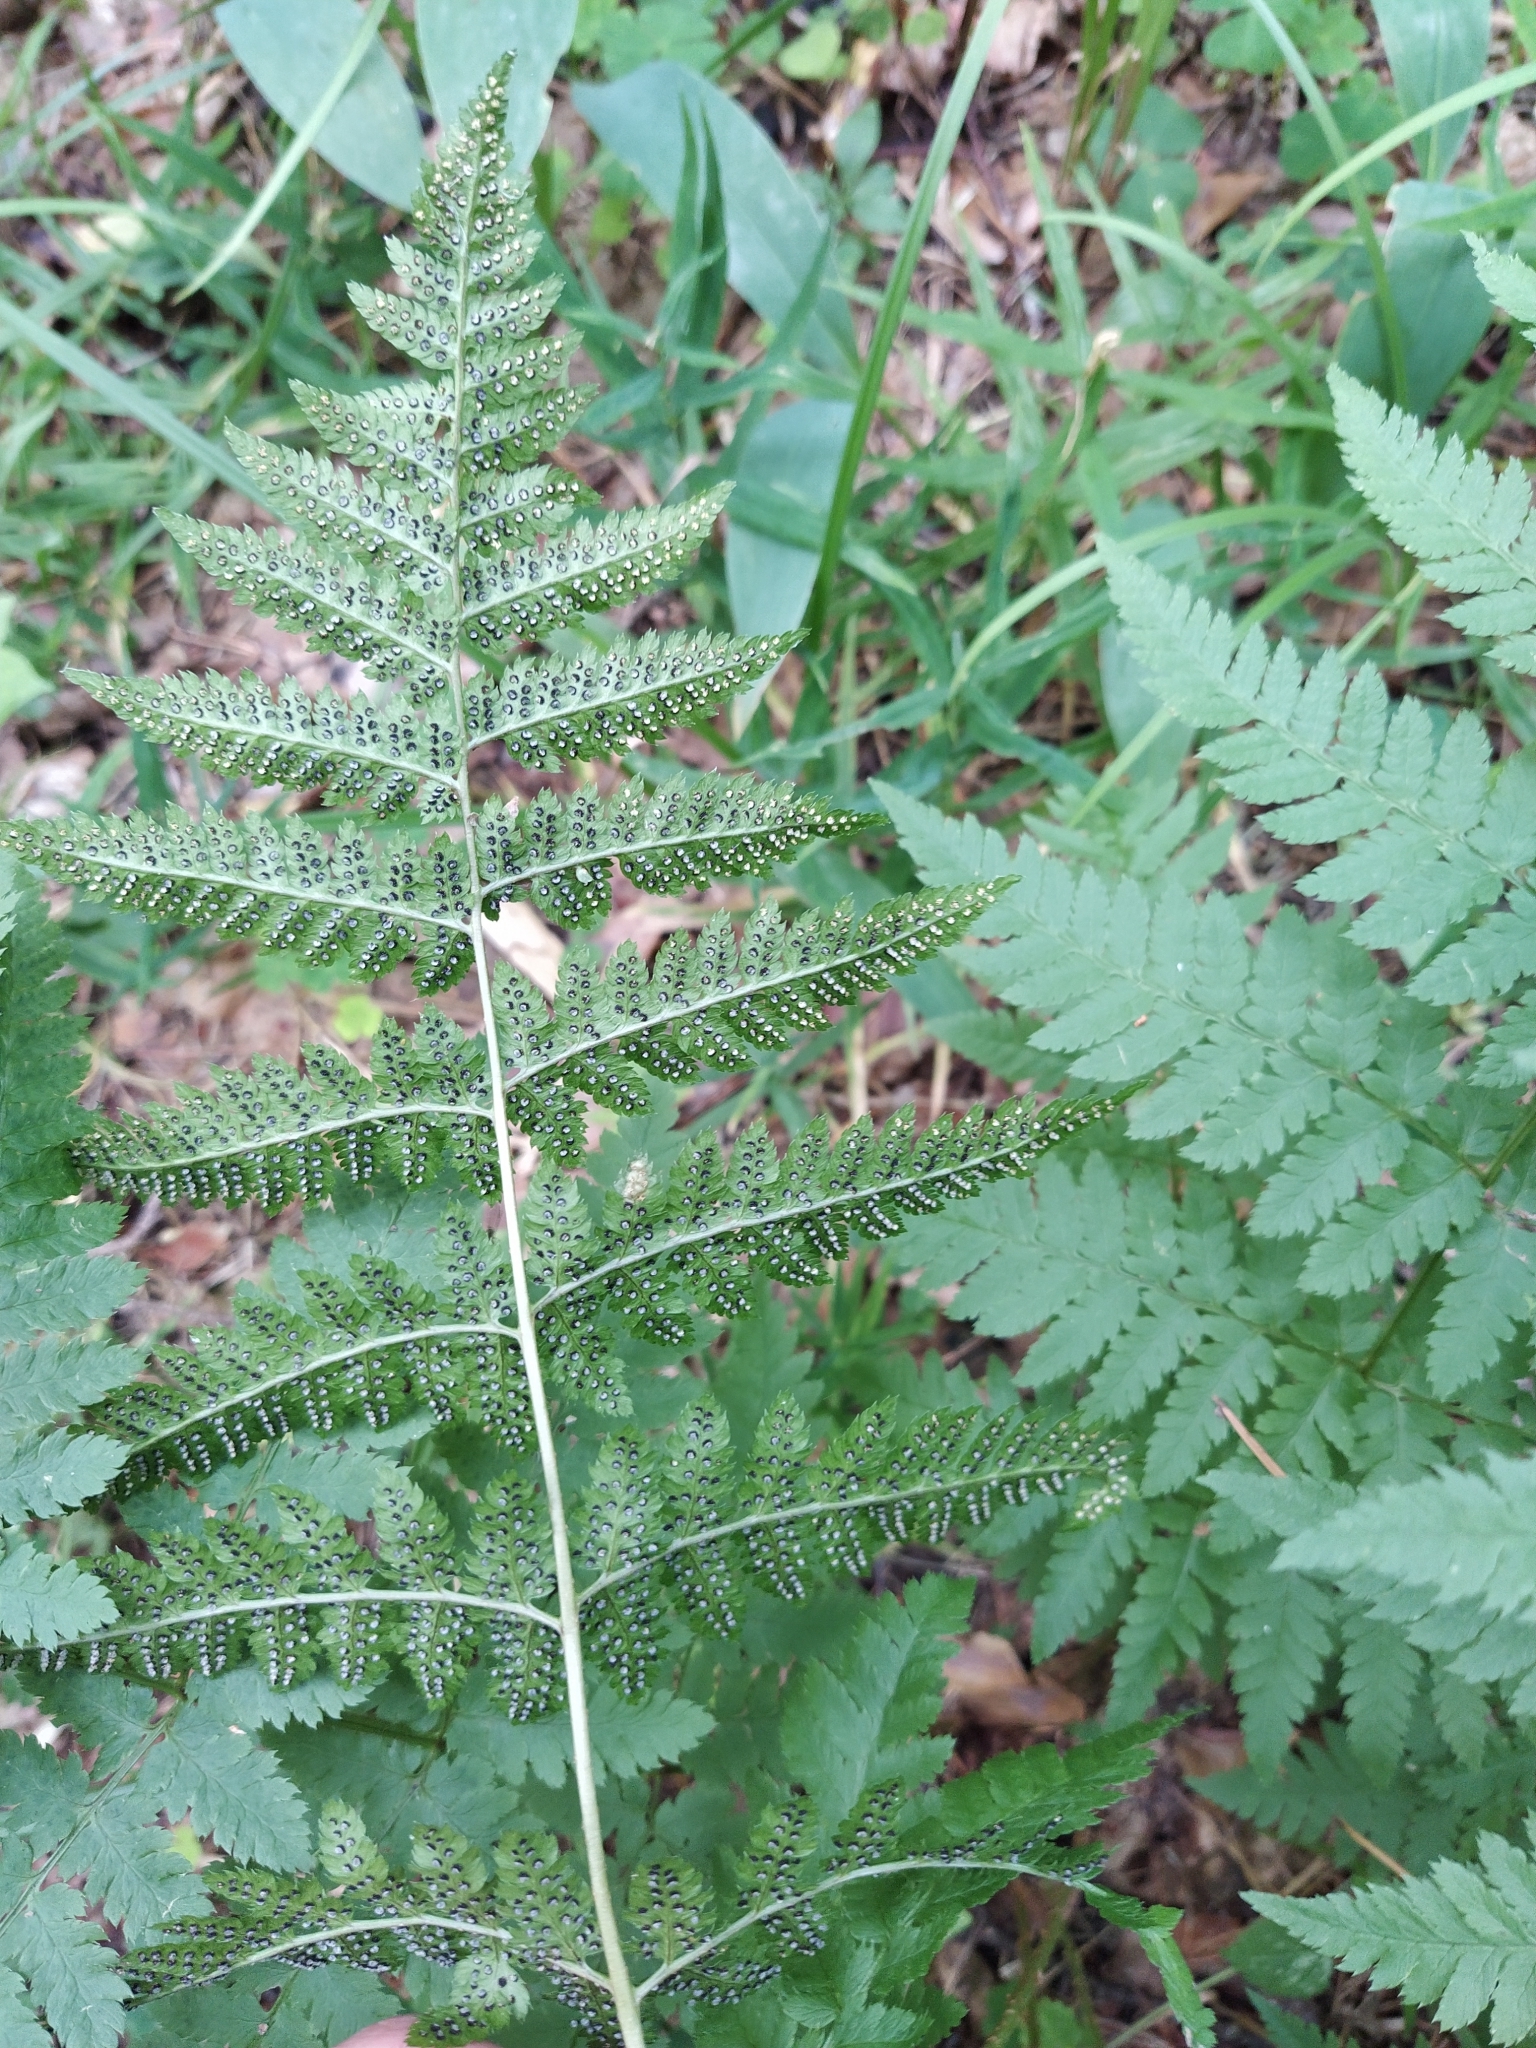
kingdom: Plantae
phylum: Tracheophyta
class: Polypodiopsida
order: Polypodiales
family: Dryopteridaceae
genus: Dryopteris
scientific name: Dryopteris carthusiana
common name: Narrow buckler-fern
